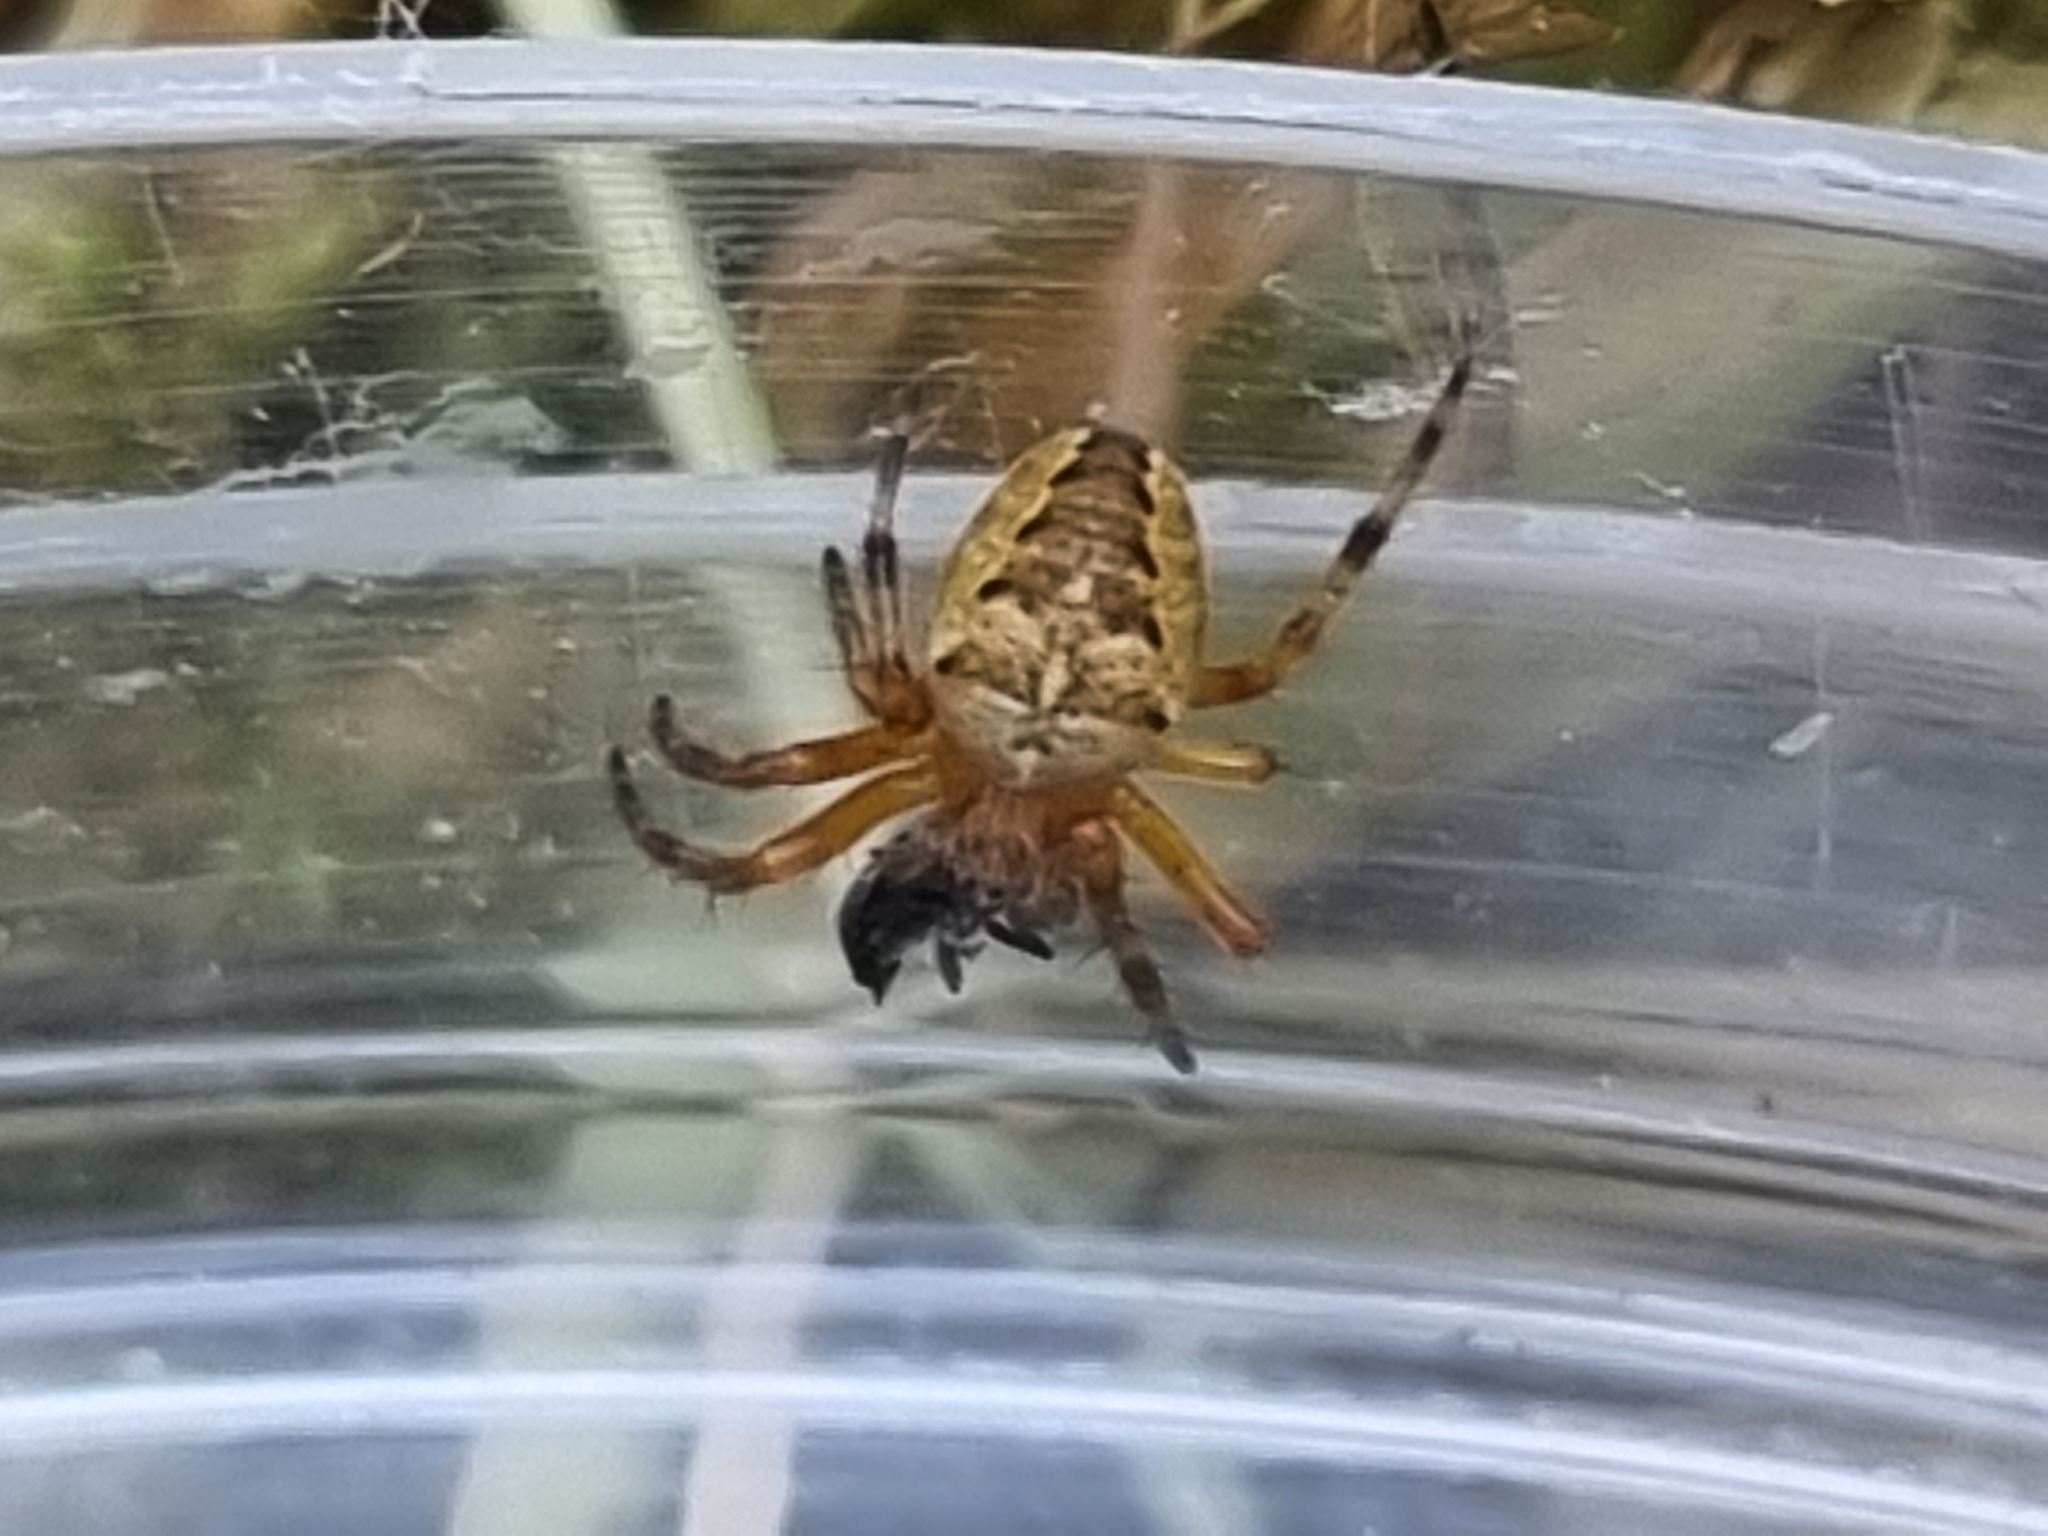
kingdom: Animalia
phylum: Arthropoda
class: Arachnida
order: Araneae
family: Araneidae
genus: Araneus
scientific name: Araneus diadematus
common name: Cross orbweaver
